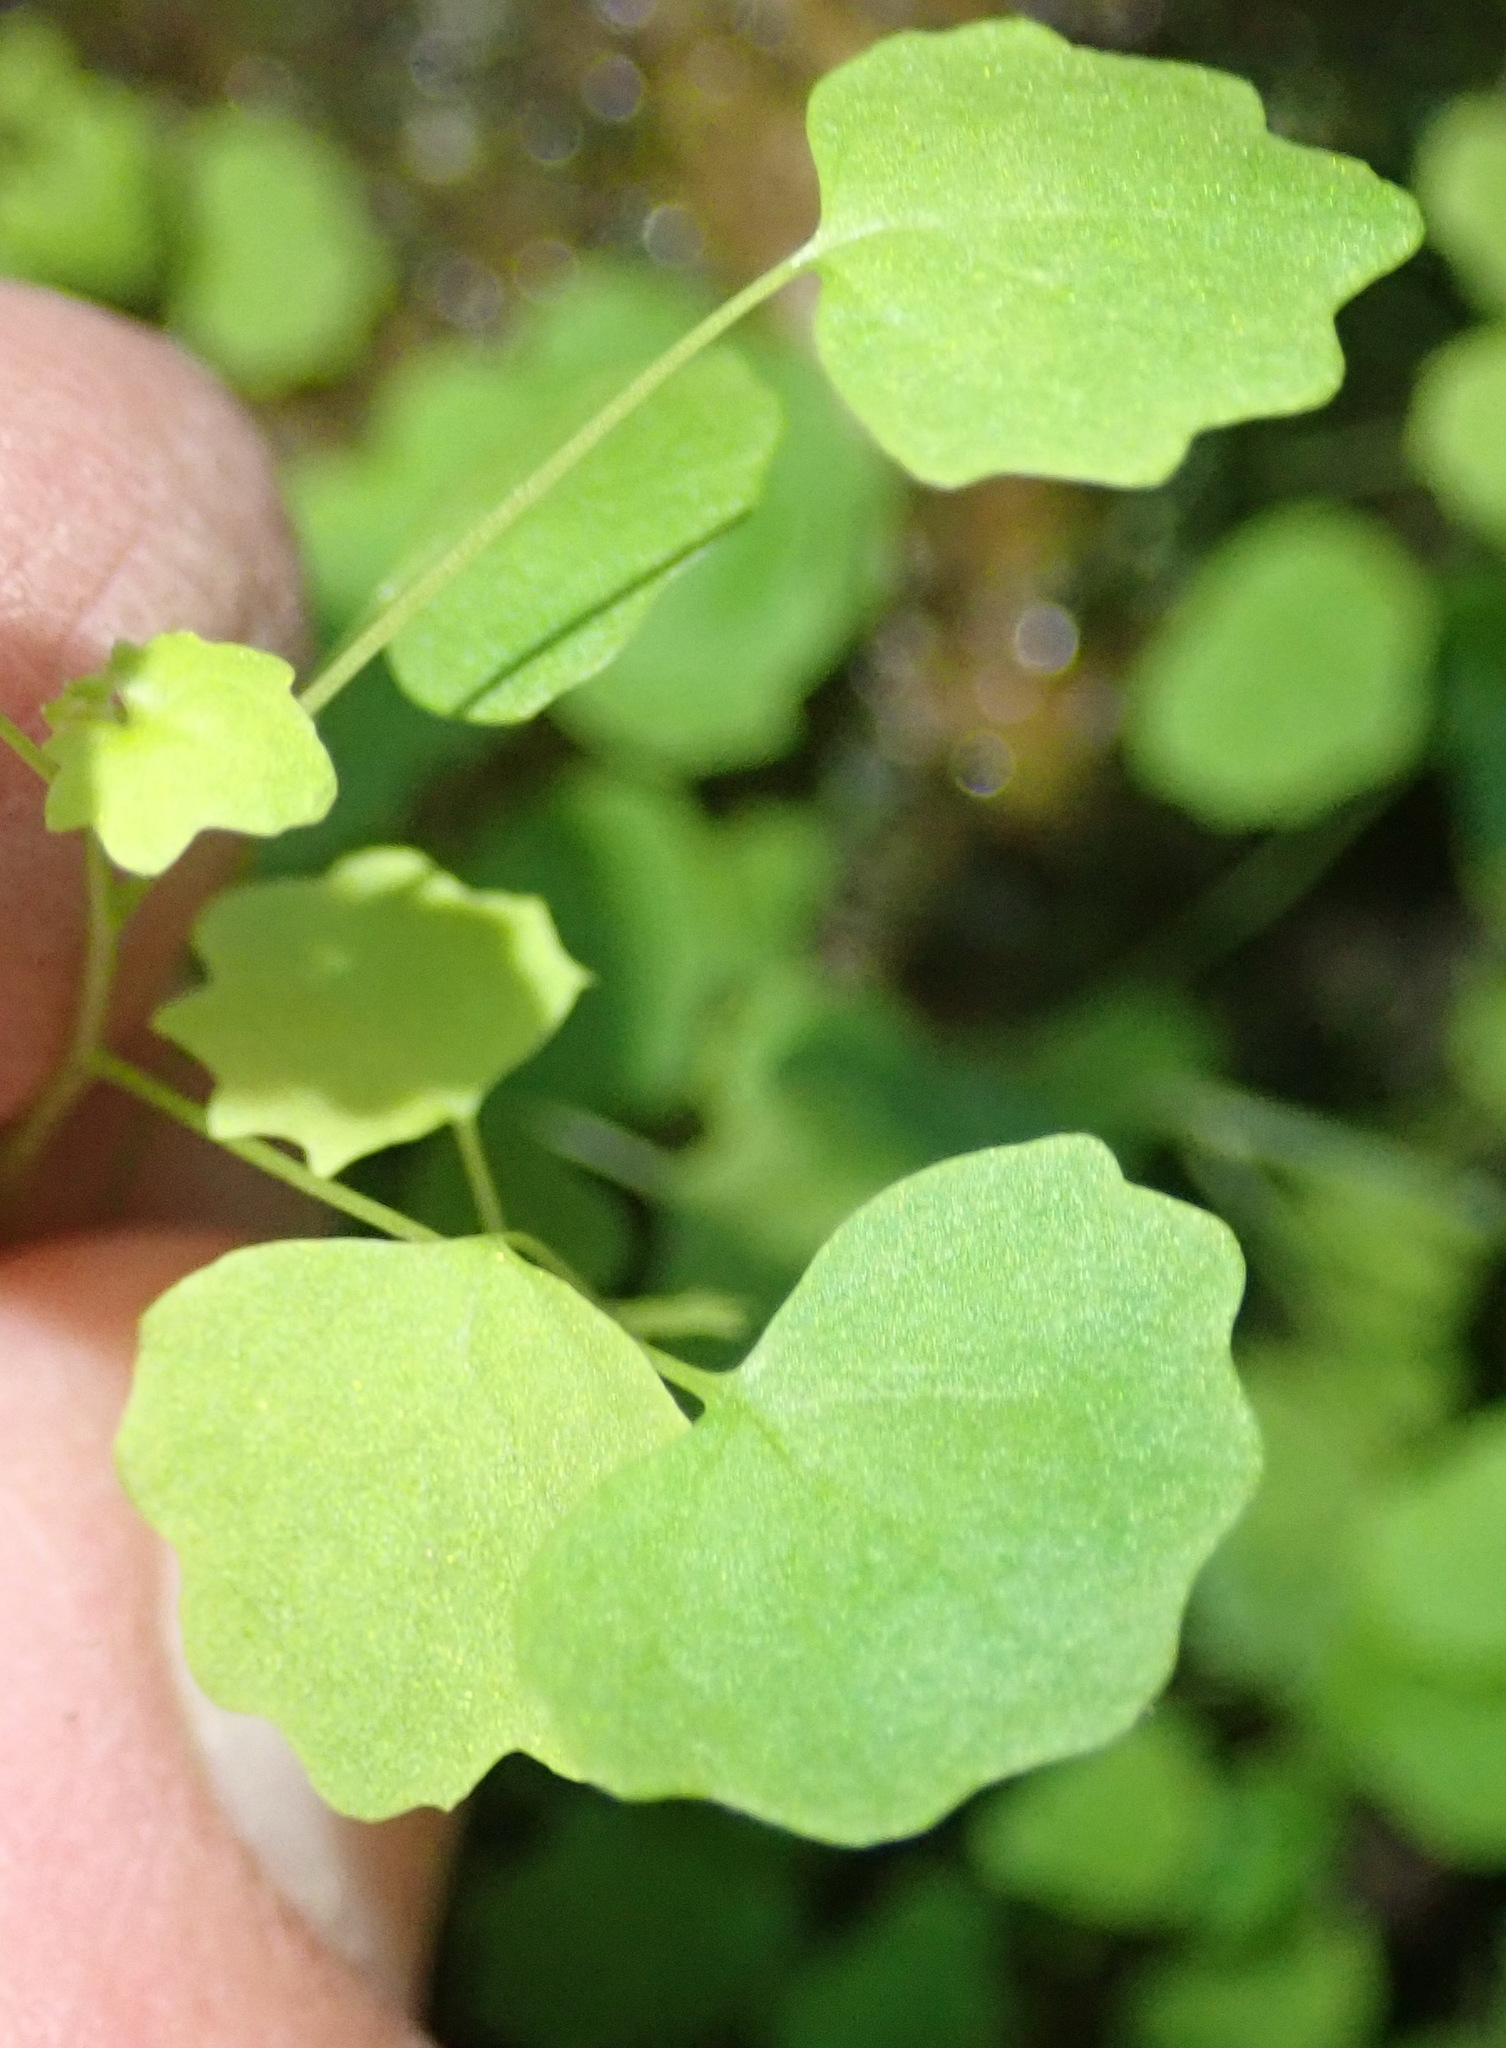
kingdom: Plantae
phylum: Tracheophyta
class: Magnoliopsida
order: Asterales
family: Campanulaceae
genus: Wimmerella
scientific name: Wimmerella pygmaea
